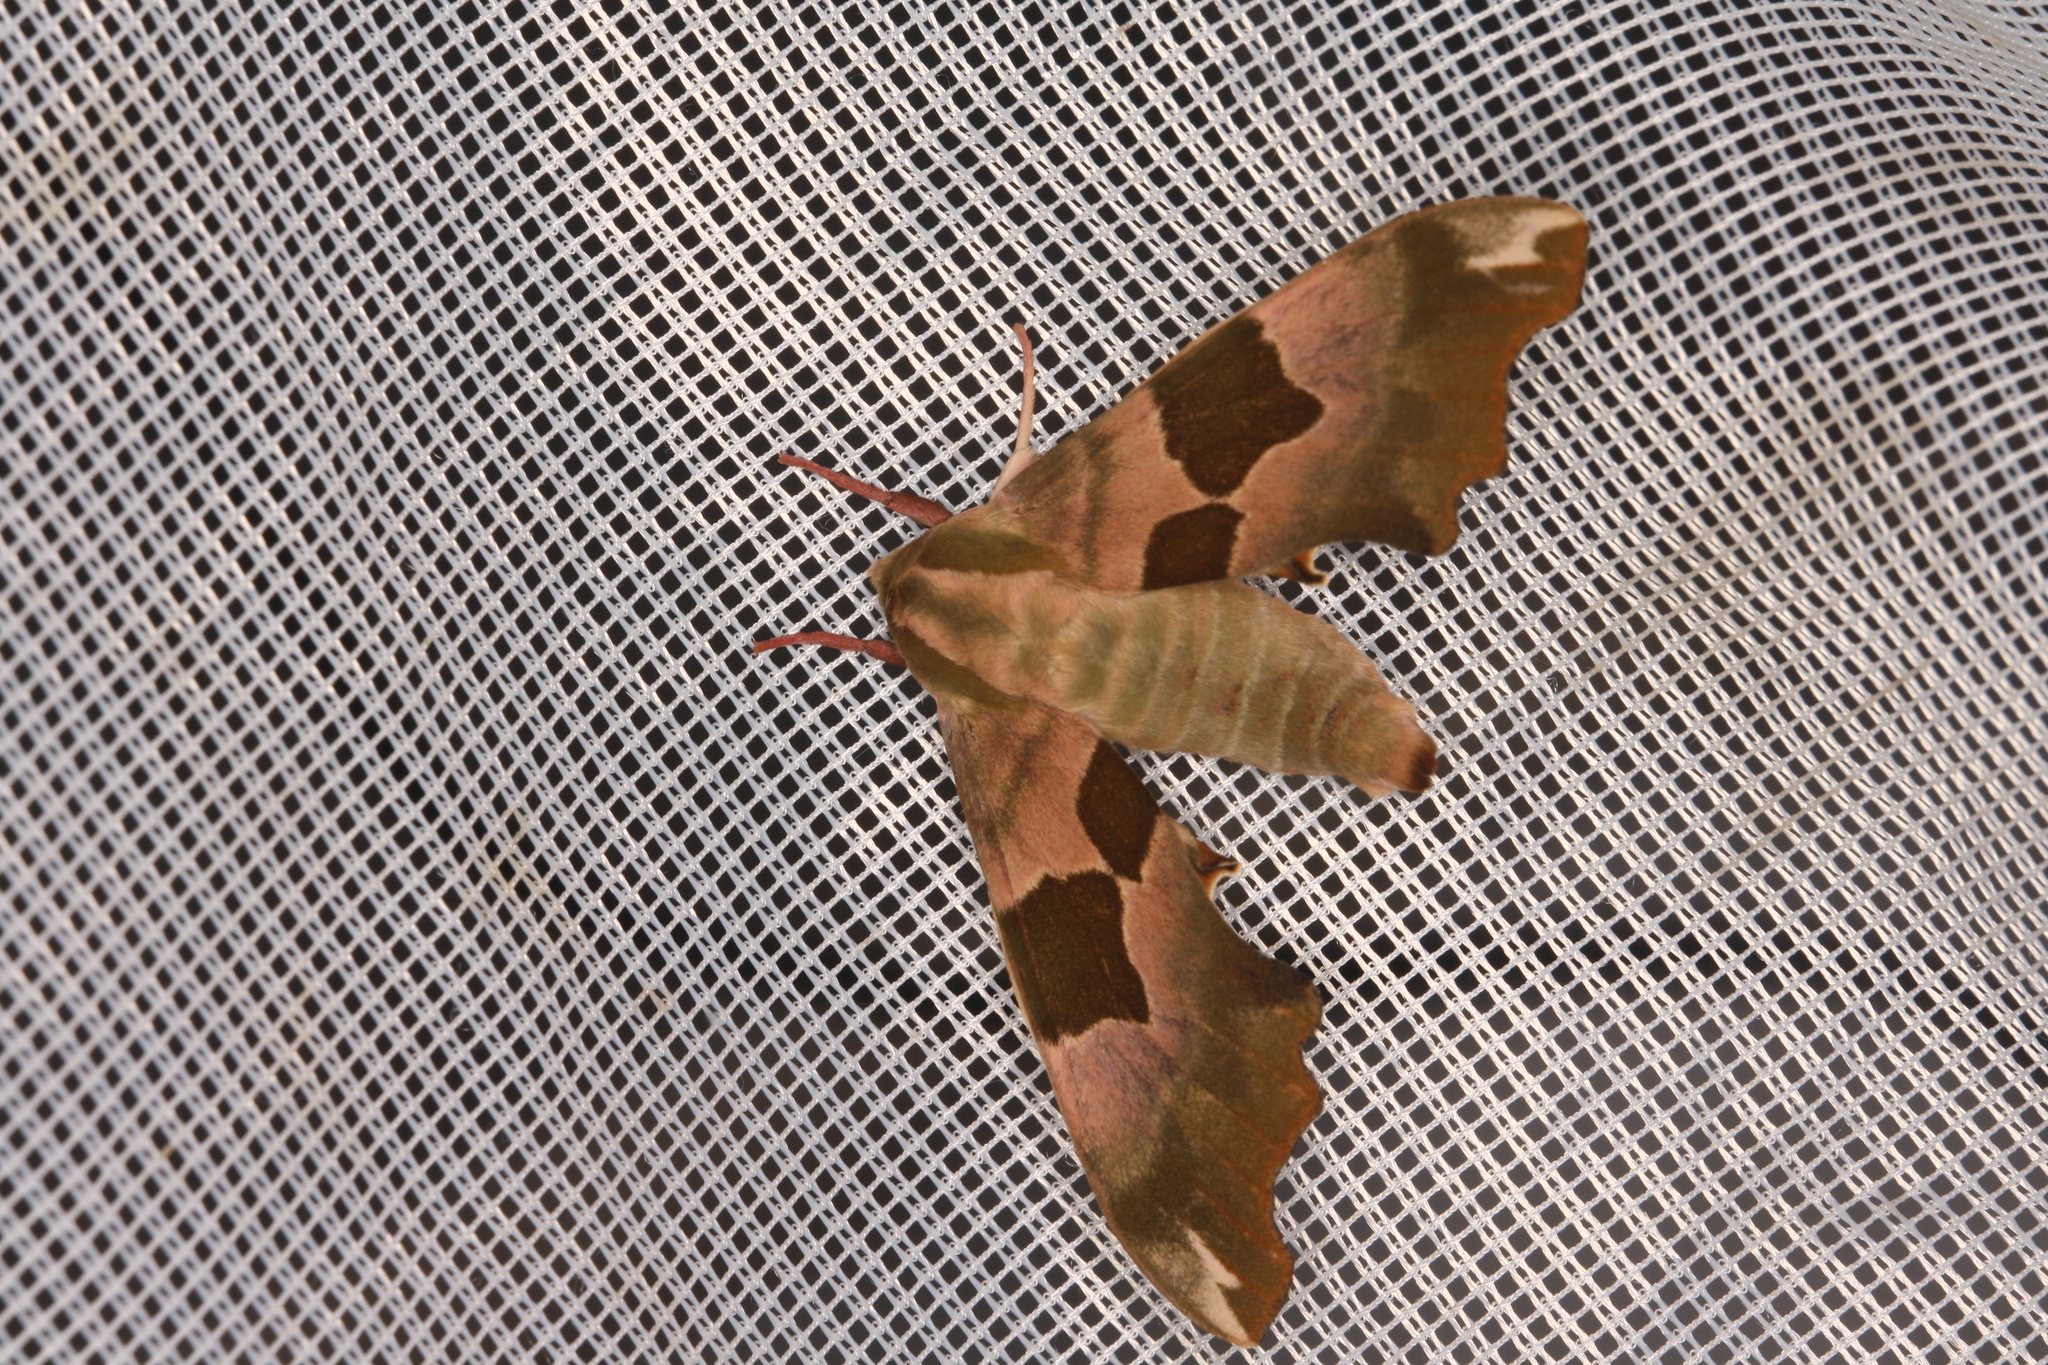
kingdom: Animalia
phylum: Arthropoda
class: Insecta
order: Lepidoptera
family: Sphingidae
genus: Mimas
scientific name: Mimas tiliae
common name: Lime hawk-moth
